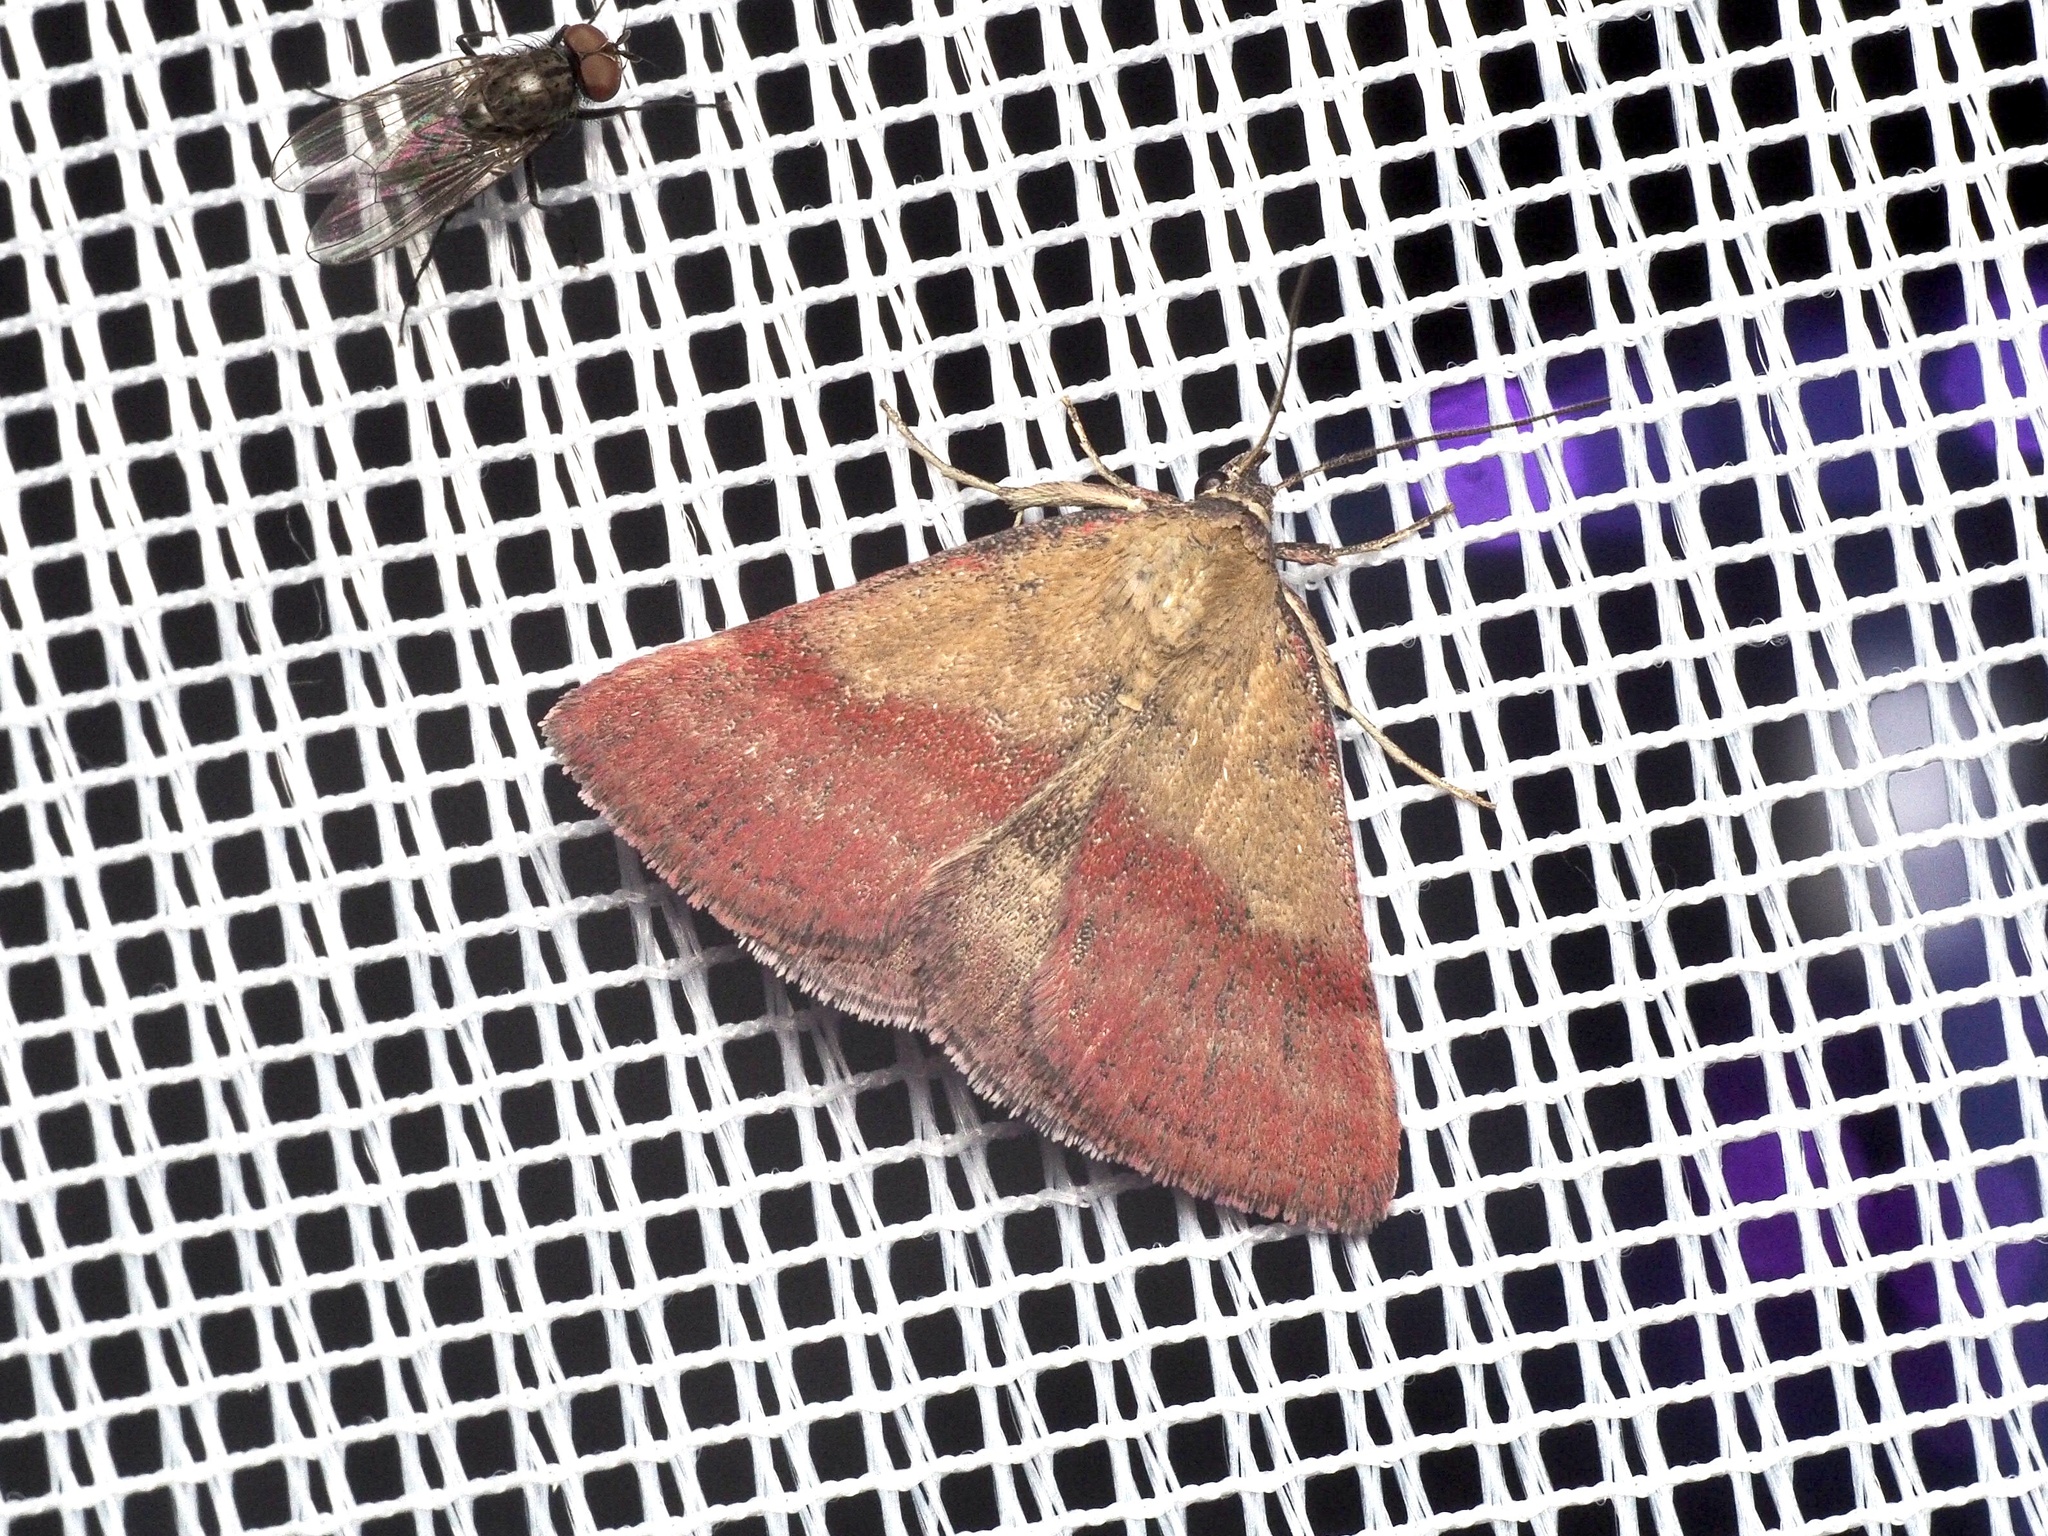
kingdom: Animalia
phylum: Arthropoda
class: Insecta
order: Lepidoptera
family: Erebidae
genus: Phytometra
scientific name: Phytometra viridaria
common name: Small purple-barred
